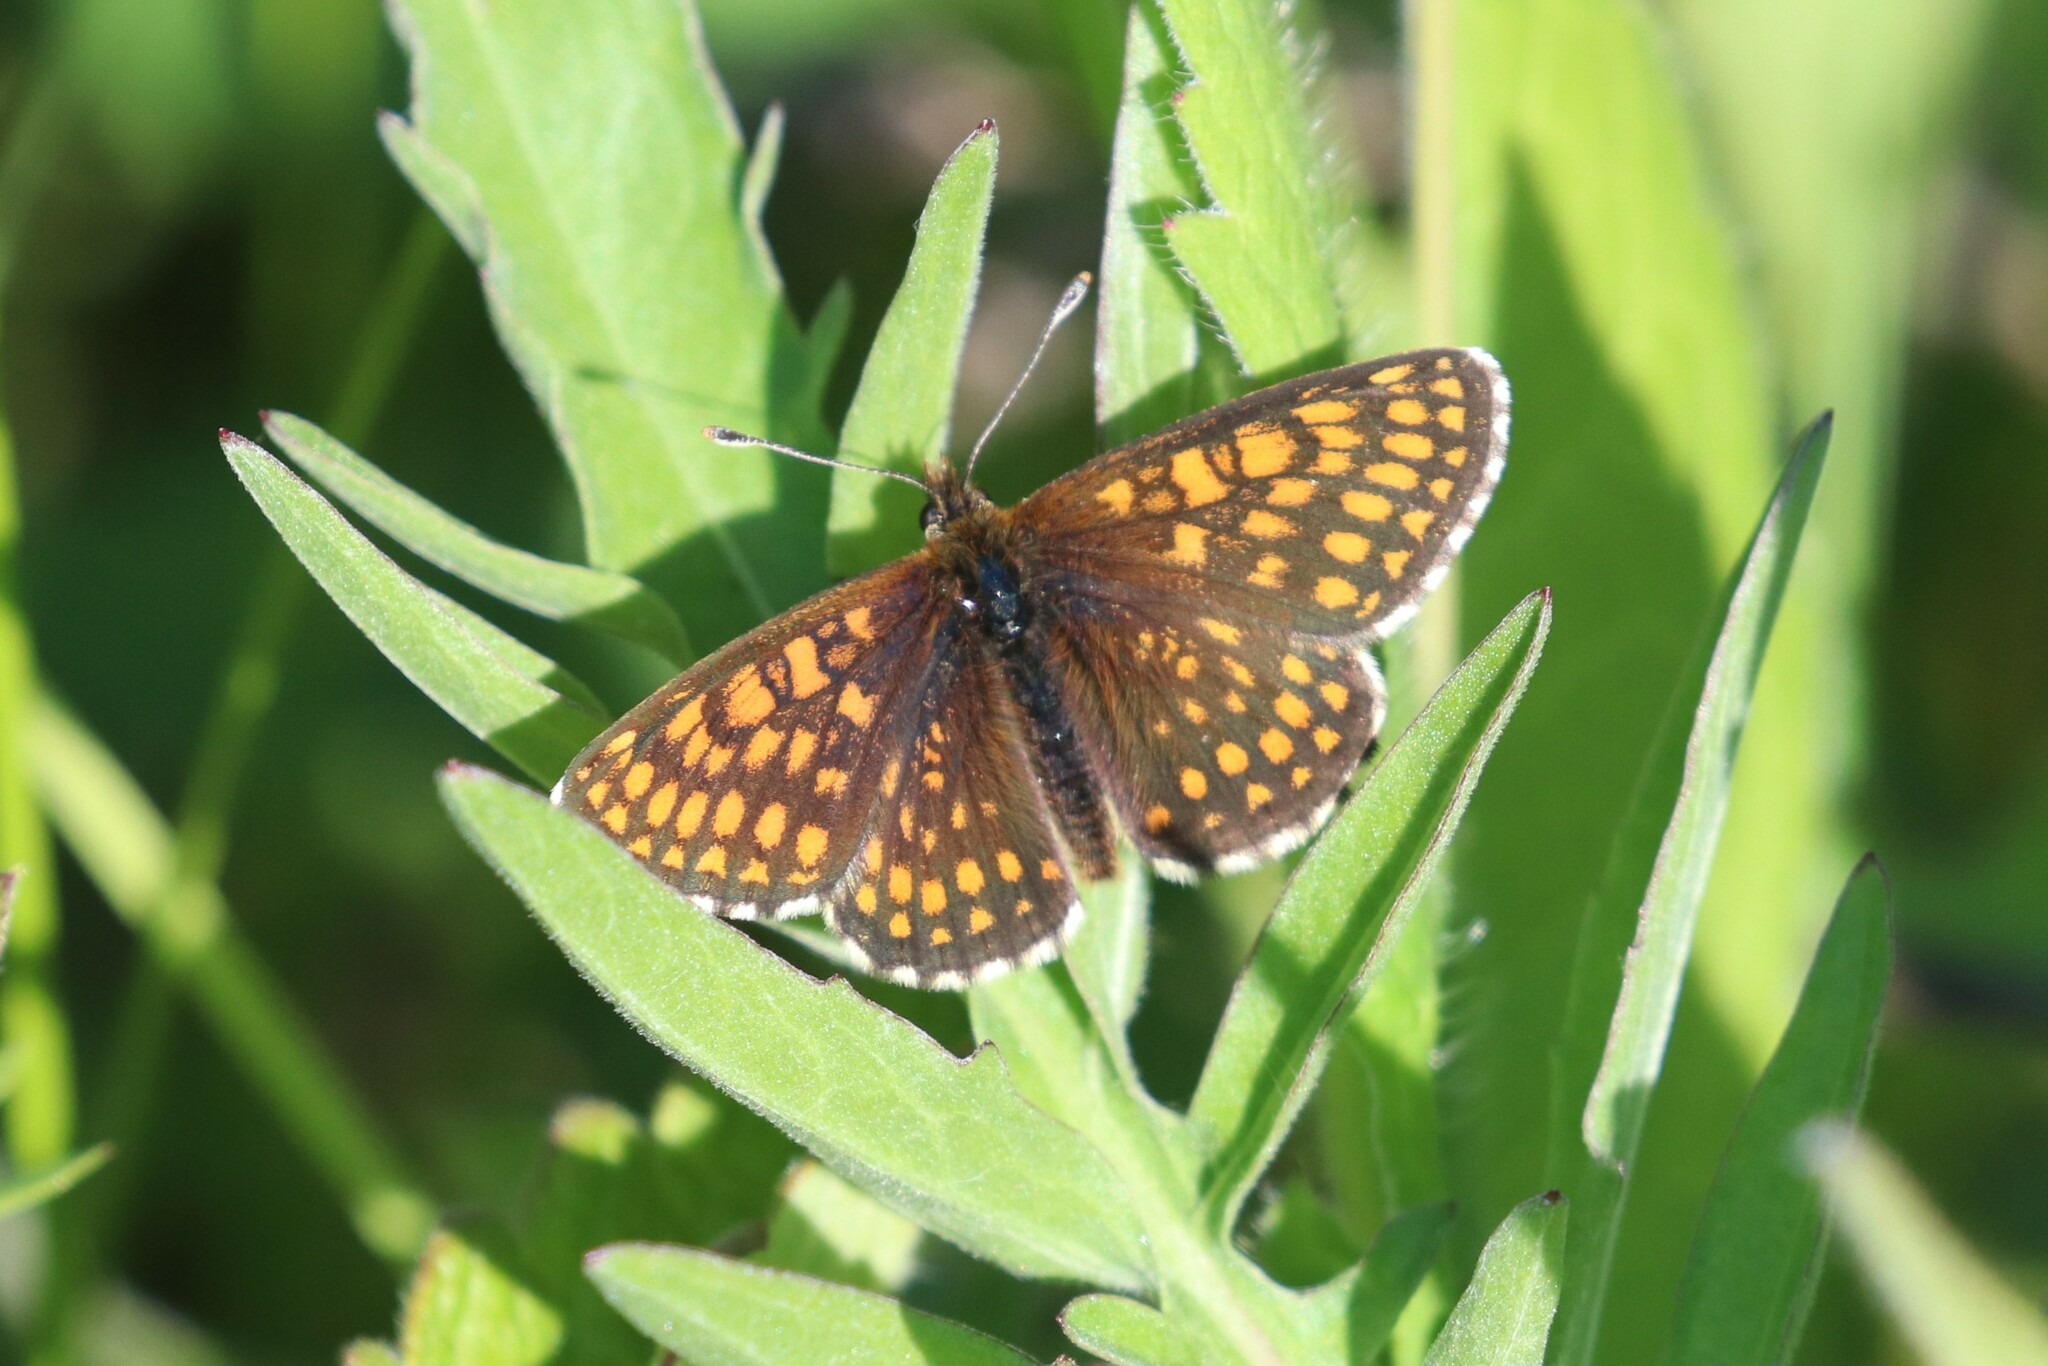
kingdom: Animalia
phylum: Arthropoda
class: Insecta
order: Lepidoptera
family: Nymphalidae
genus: Melitaea
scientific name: Melitaea
